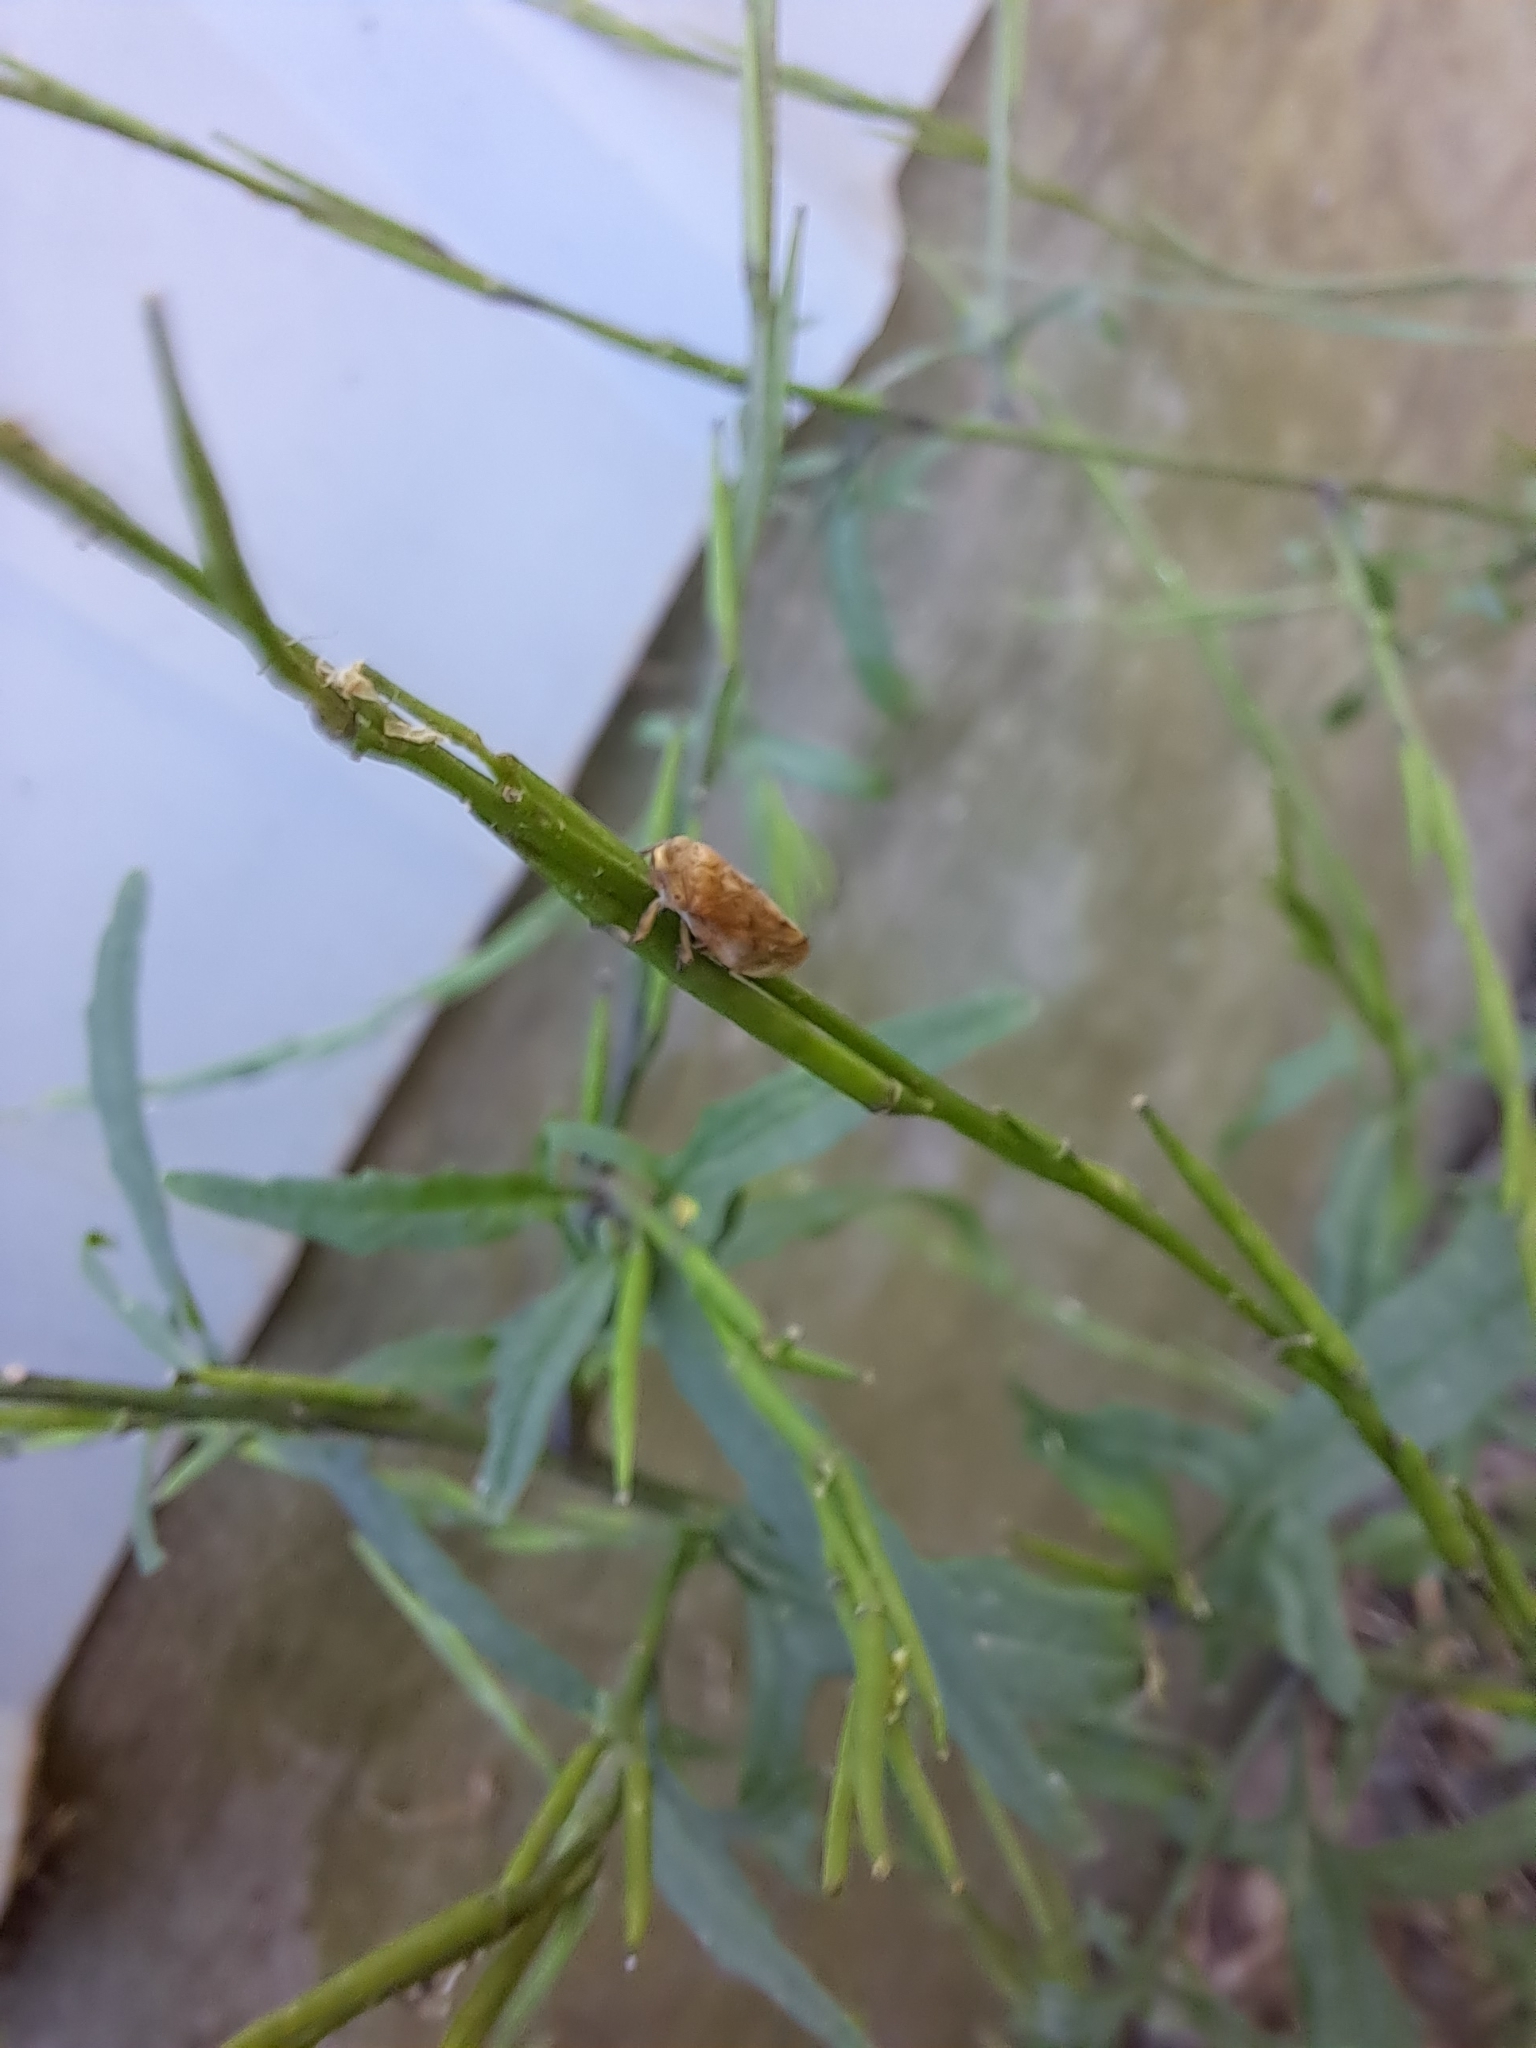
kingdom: Animalia
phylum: Arthropoda
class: Insecta
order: Hemiptera
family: Aphrophoridae
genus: Philaenus
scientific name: Philaenus spumarius
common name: Meadow spittlebug
